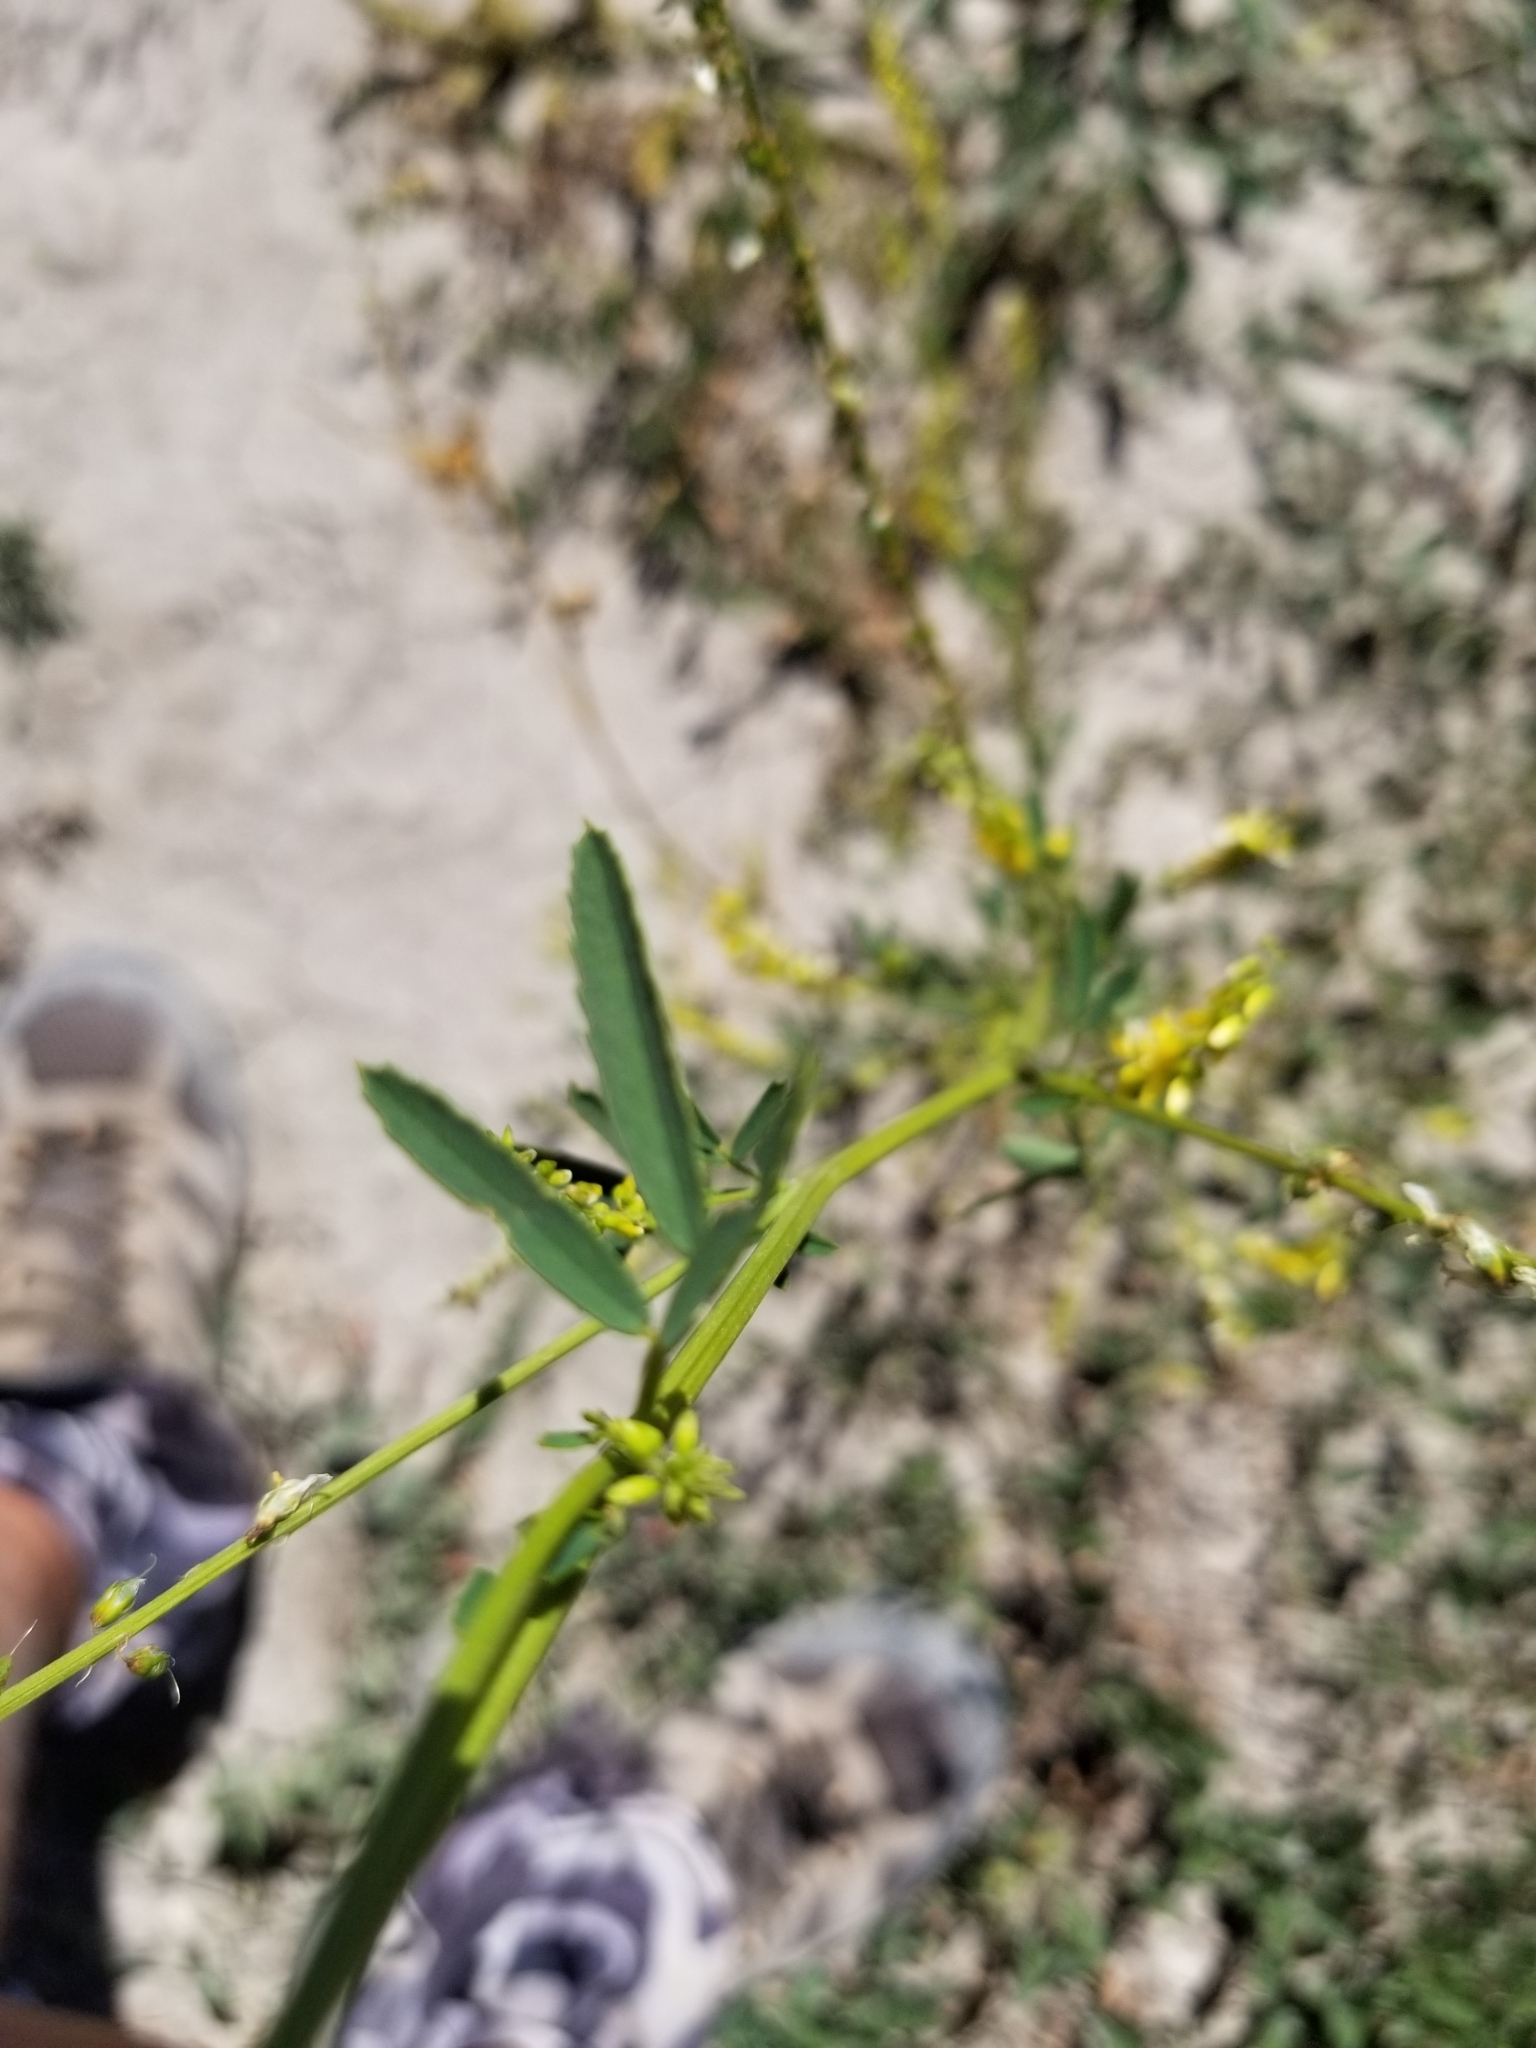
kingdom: Plantae
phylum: Tracheophyta
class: Magnoliopsida
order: Fabales
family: Fabaceae
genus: Melilotus
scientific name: Melilotus officinalis
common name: Sweetclover
